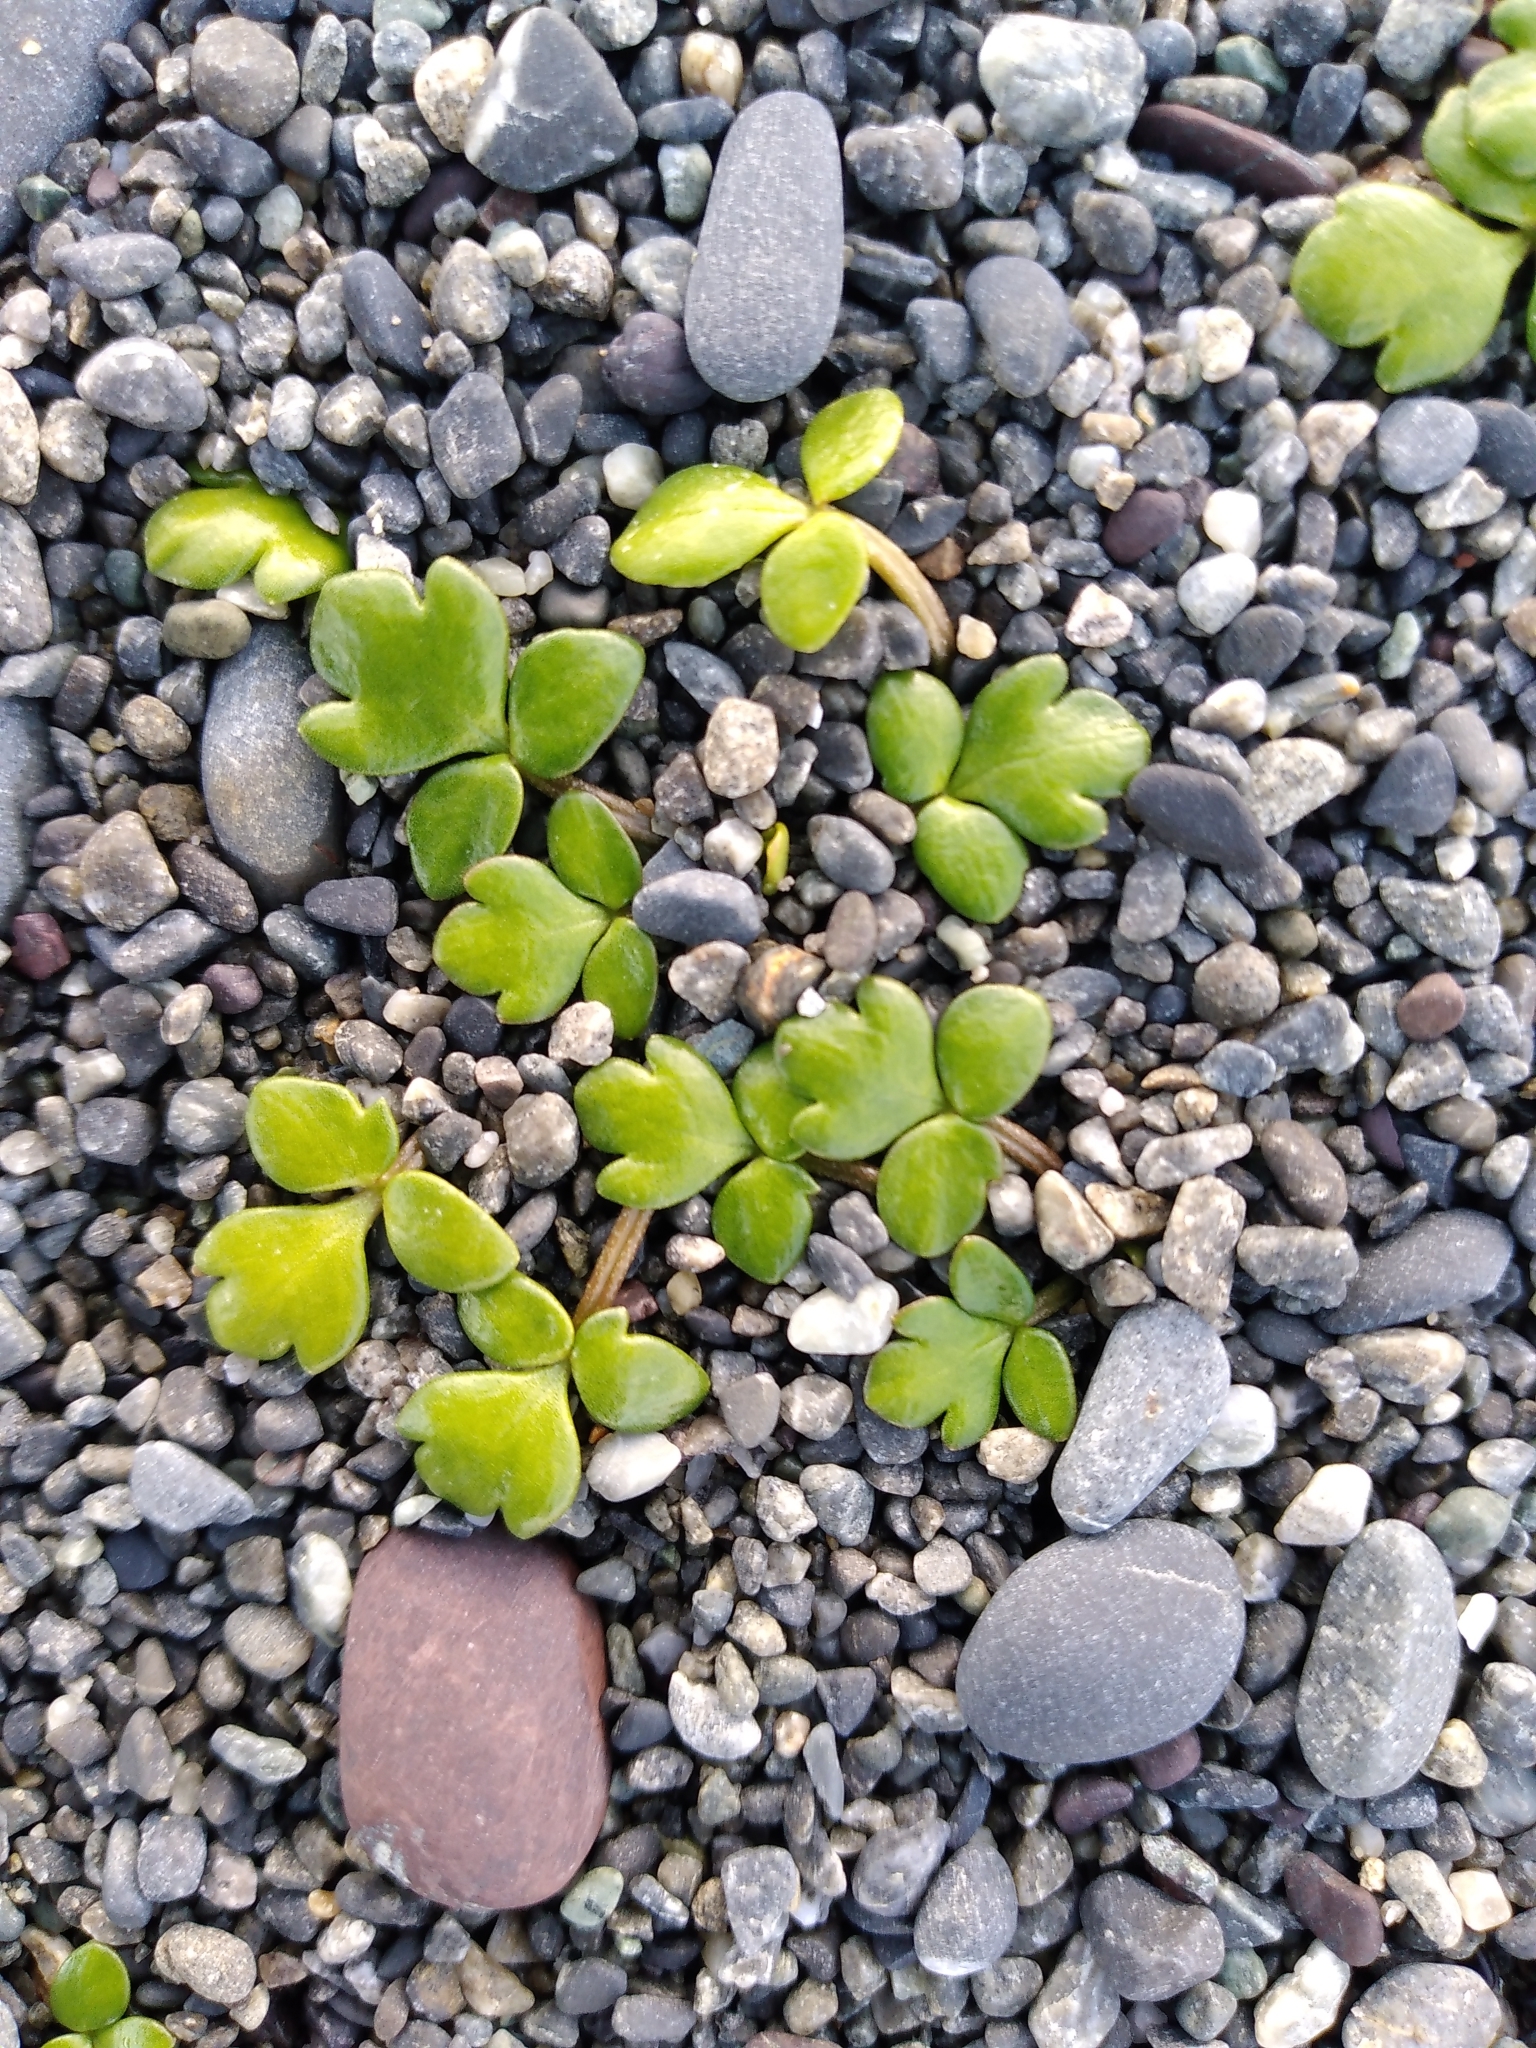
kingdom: Plantae
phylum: Tracheophyta
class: Magnoliopsida
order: Ranunculales
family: Ranunculaceae
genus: Ranunculus
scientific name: Ranunculus acaulis
